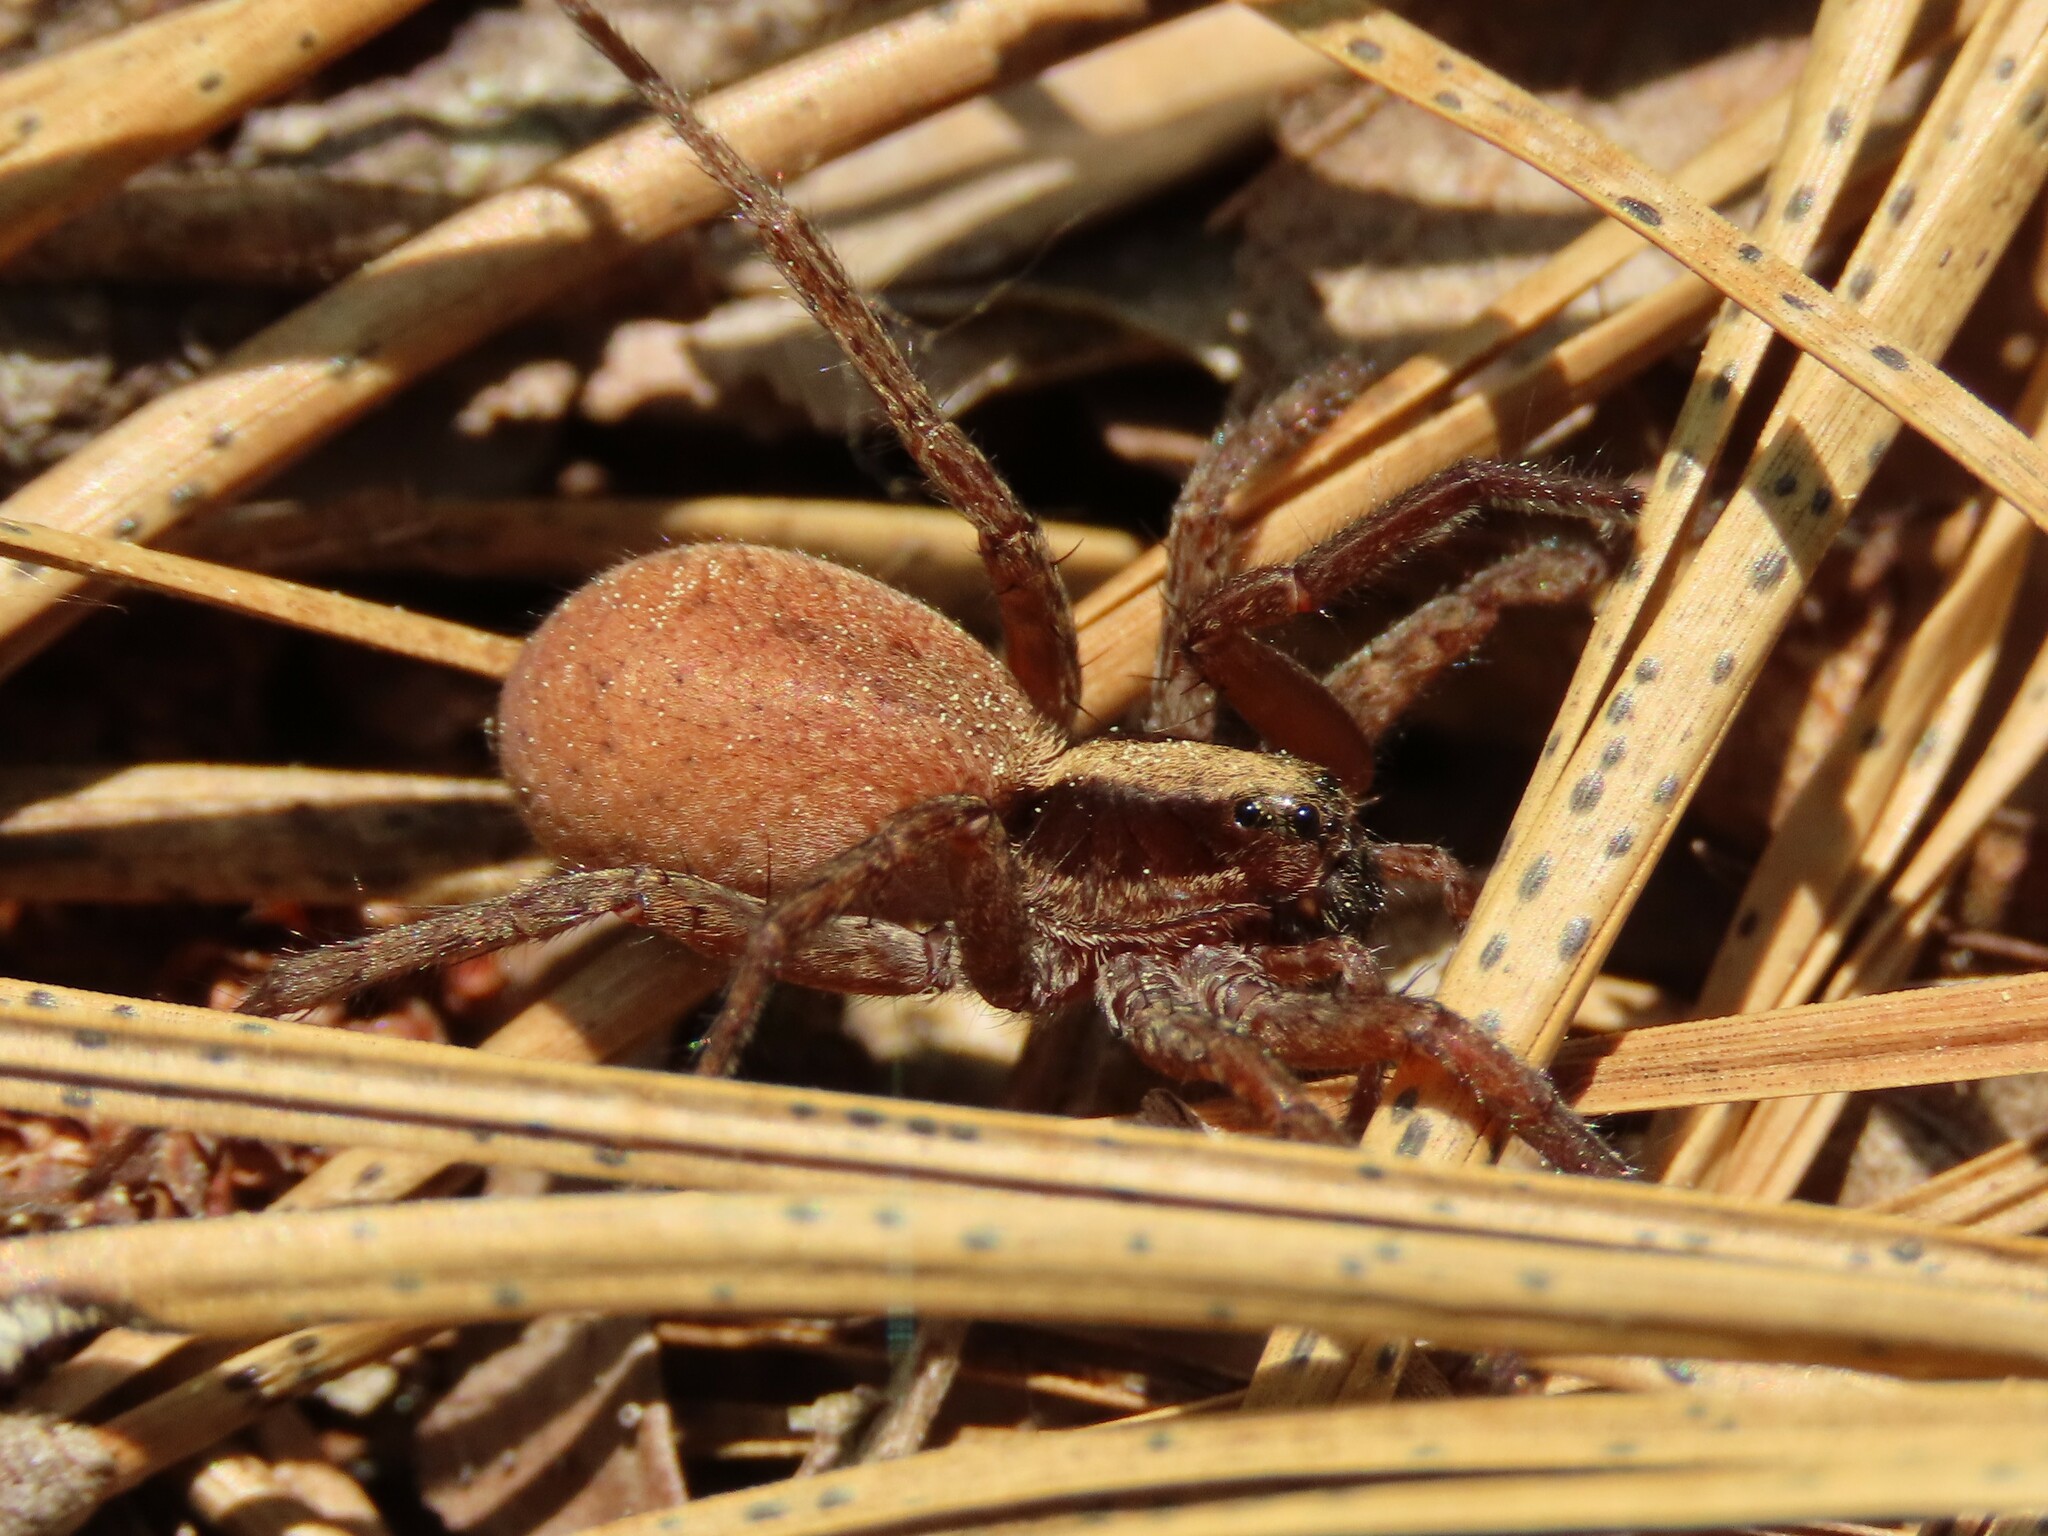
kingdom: Animalia
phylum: Arthropoda
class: Arachnida
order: Araneae
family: Lycosidae
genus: Schizocosa
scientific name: Schizocosa saltatrix
